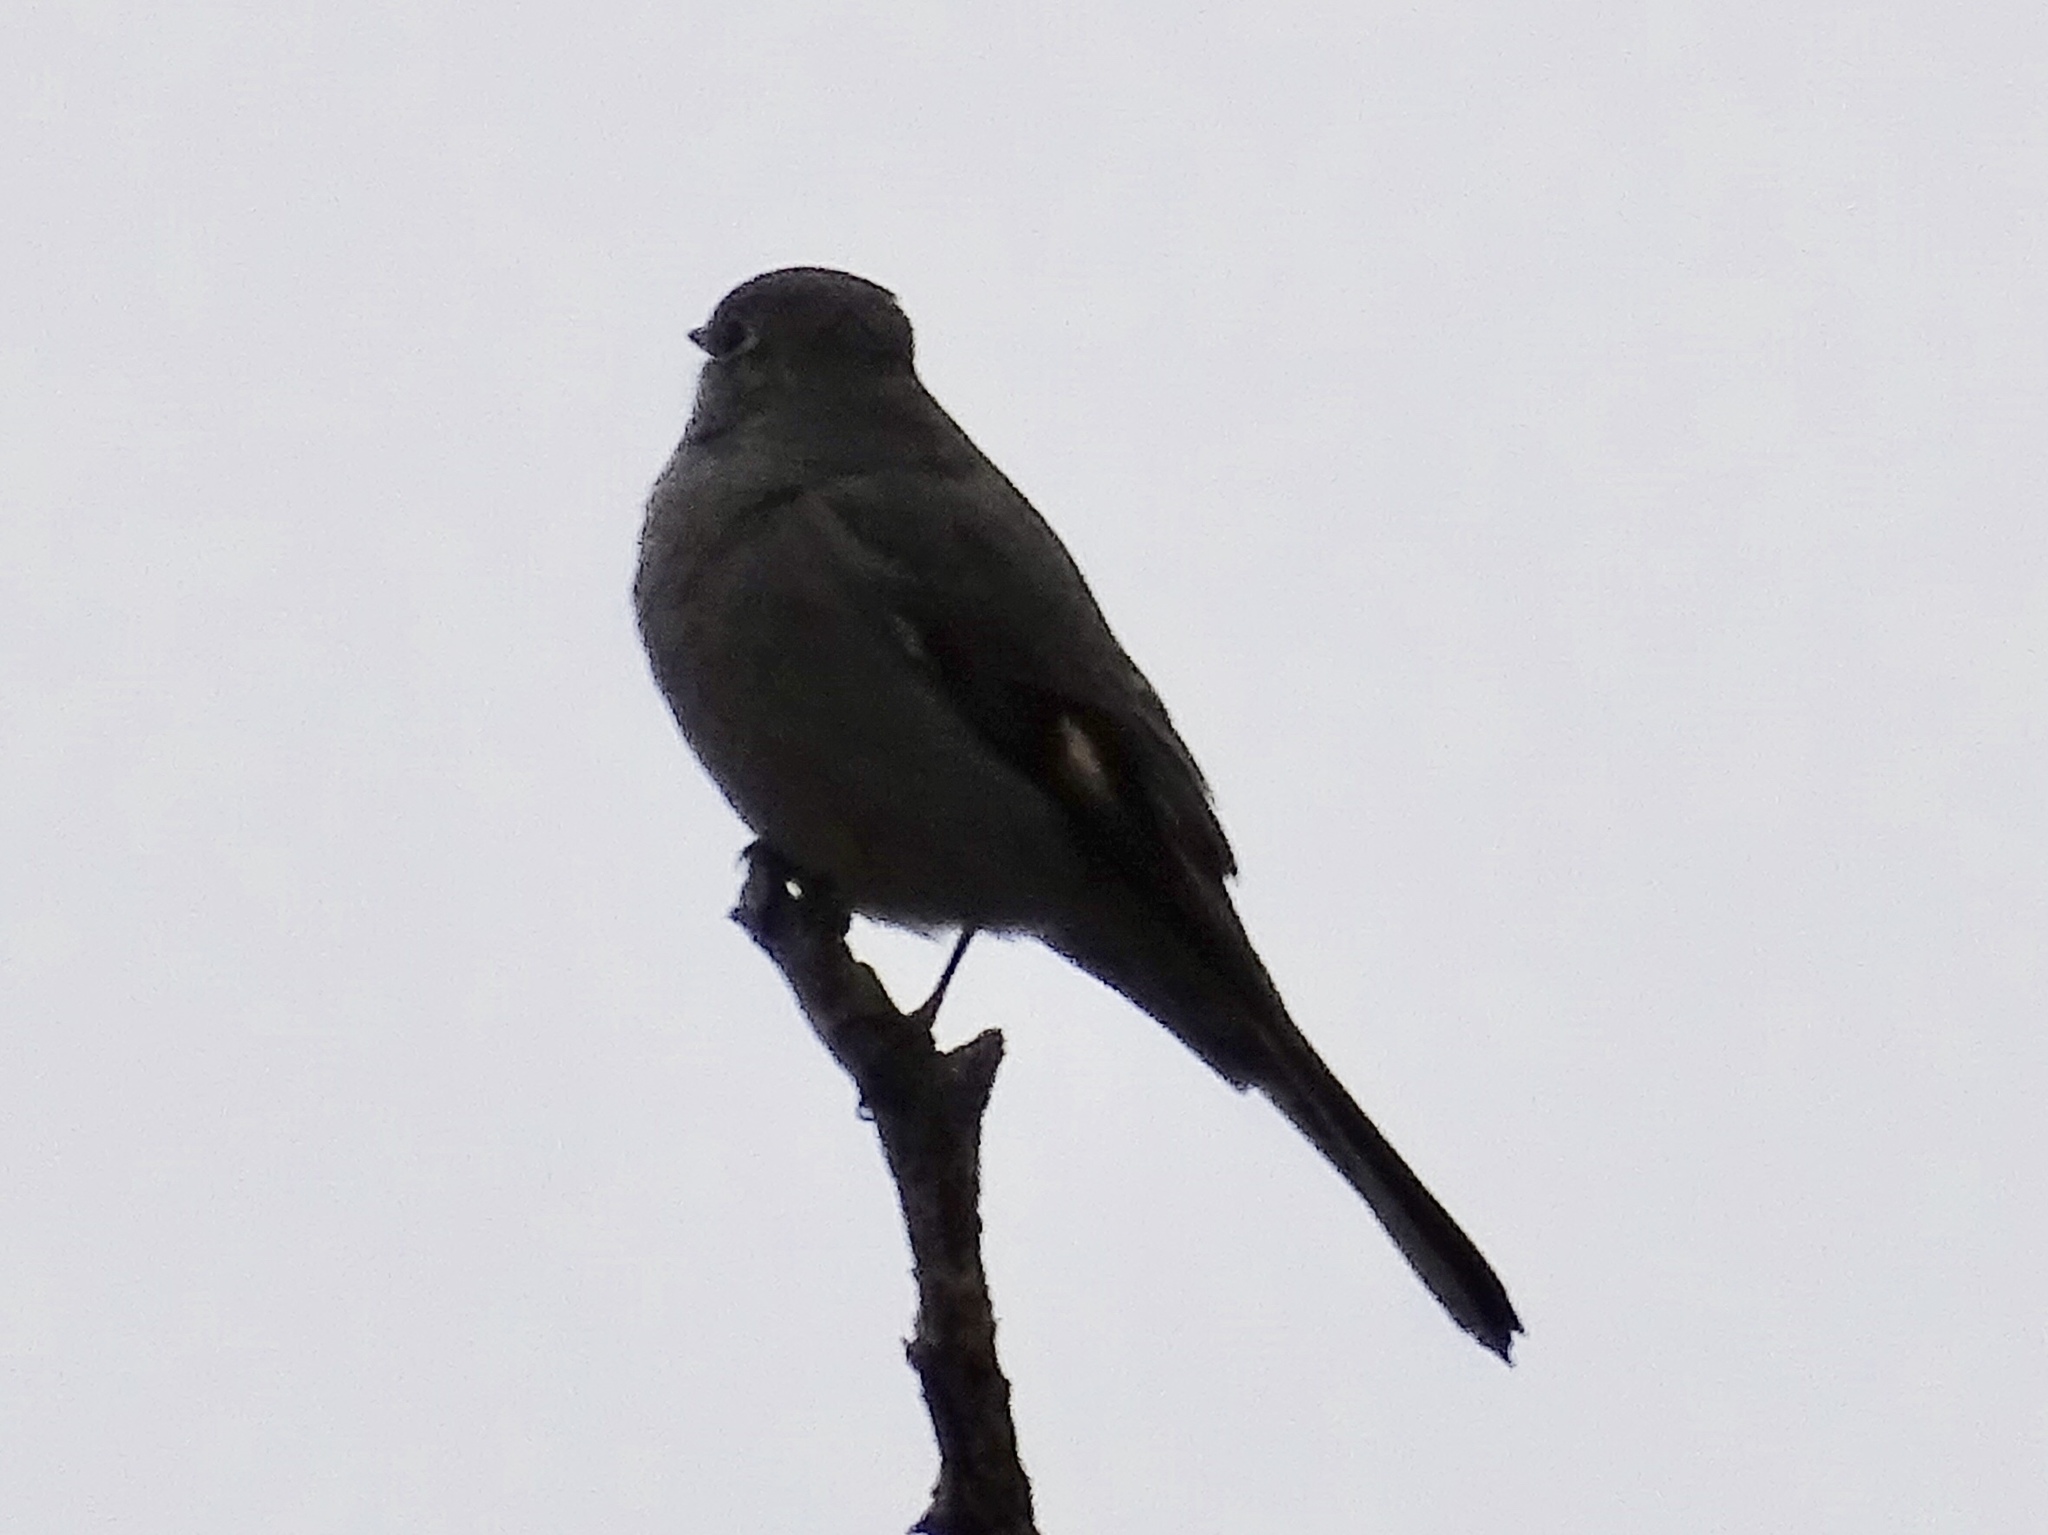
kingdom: Animalia
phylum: Chordata
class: Aves
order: Passeriformes
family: Turdidae
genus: Myadestes
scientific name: Myadestes townsendi
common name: Townsend's solitaire
